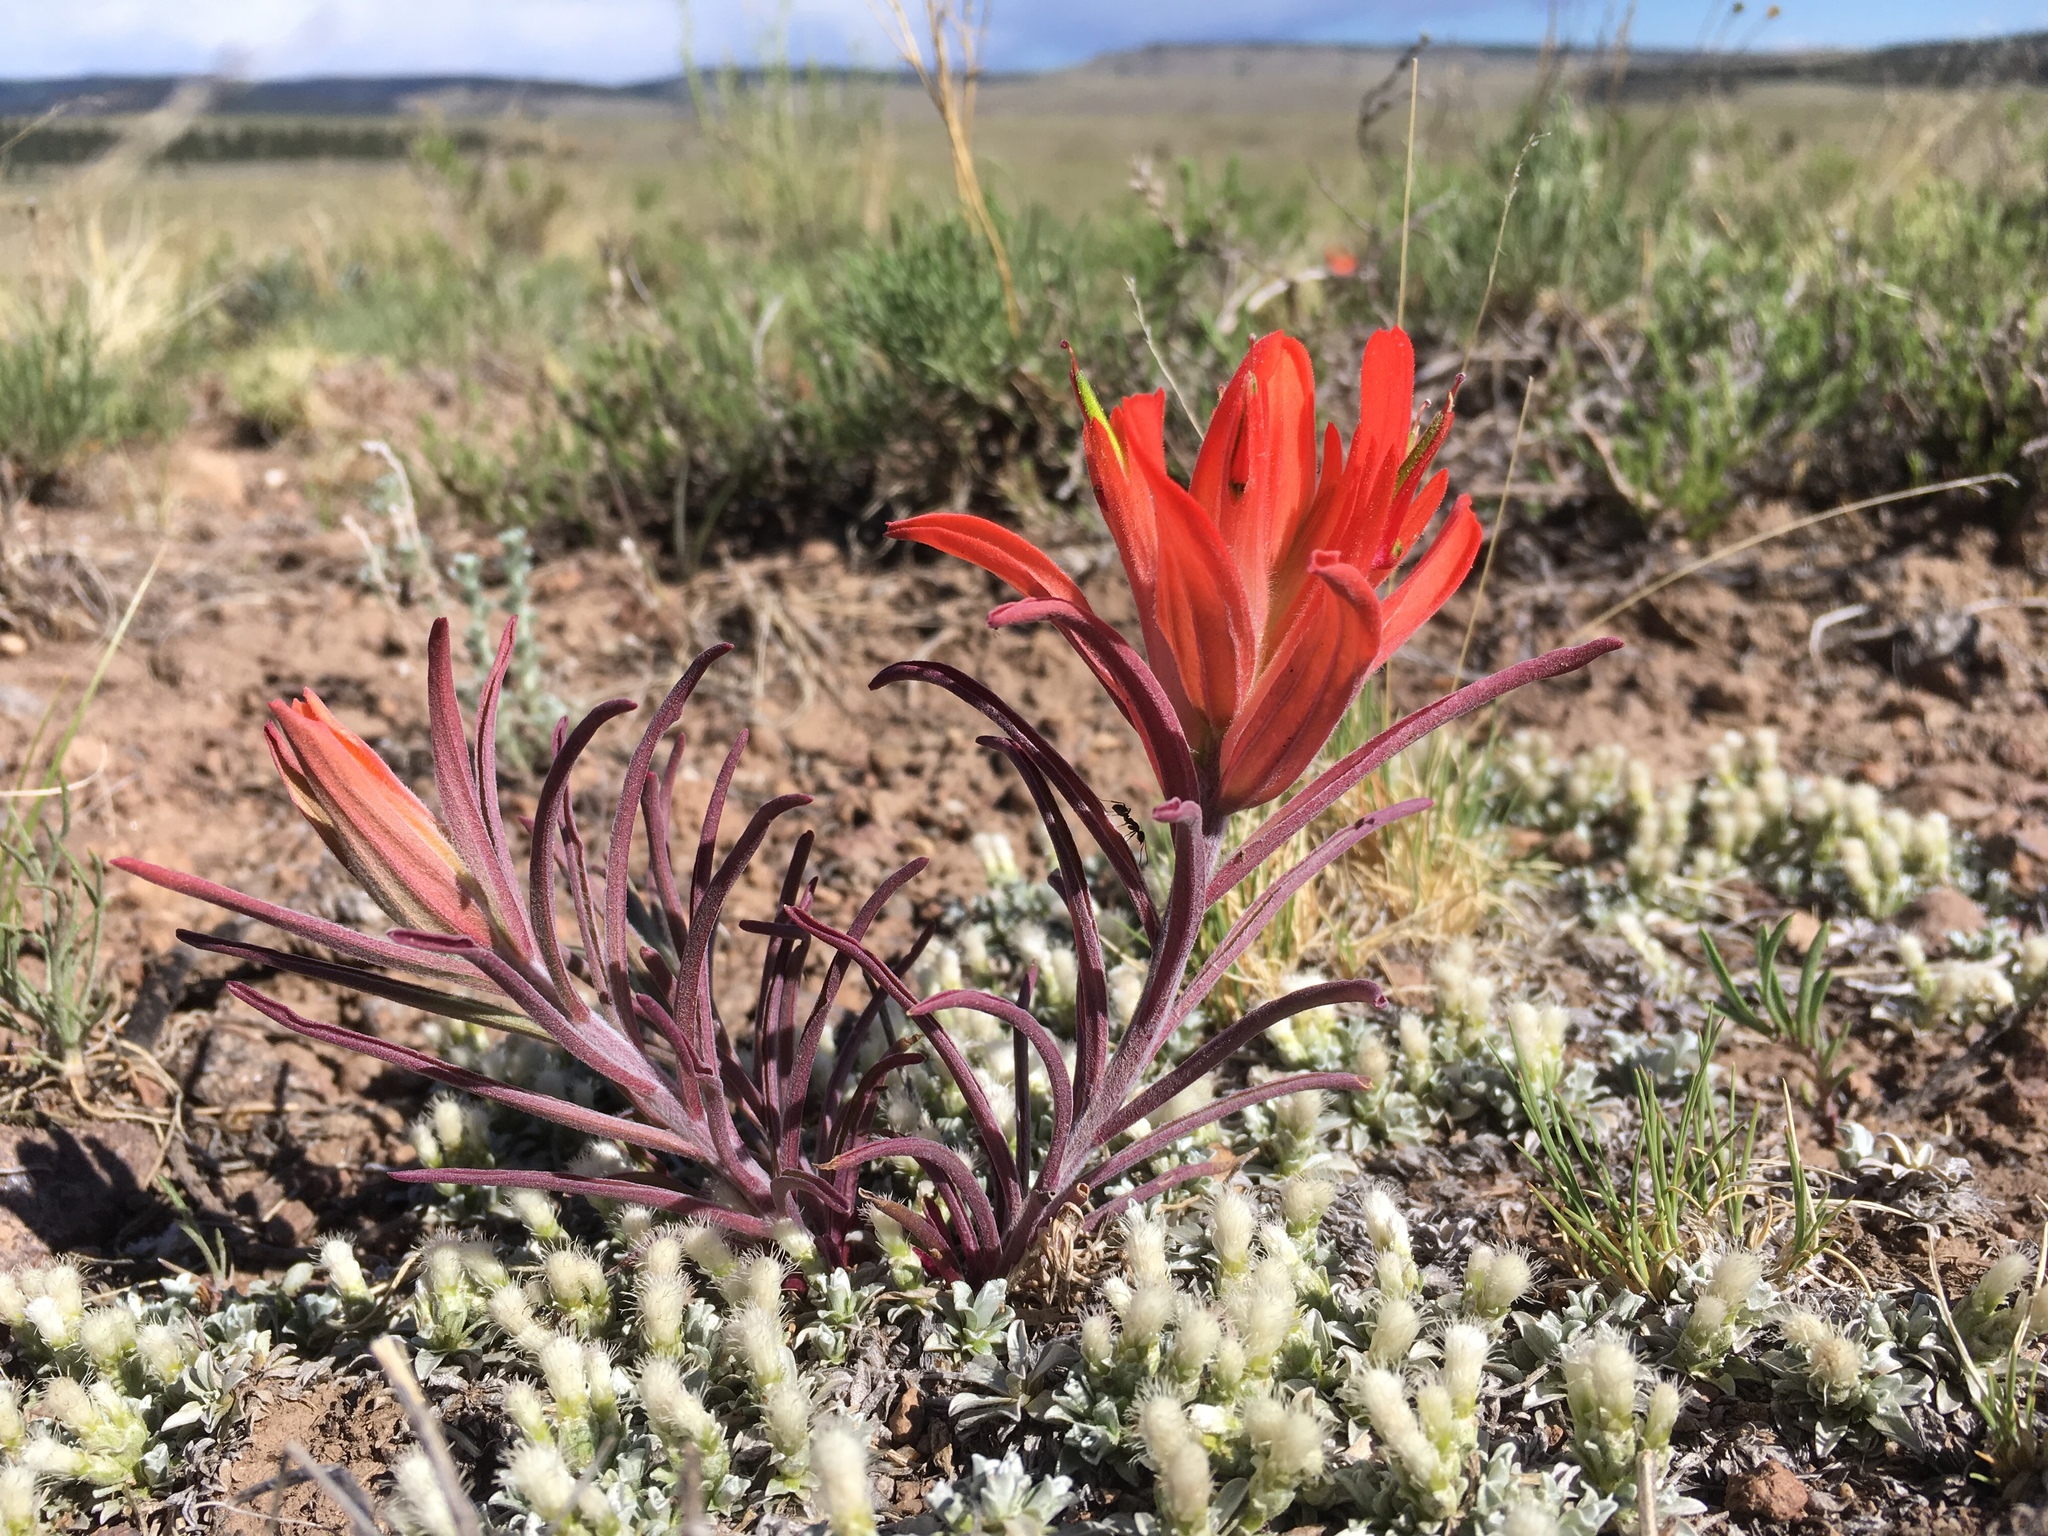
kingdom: Plantae
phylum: Tracheophyta
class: Magnoliopsida
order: Lamiales
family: Orobanchaceae
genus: Castilleja
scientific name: Castilleja integra
